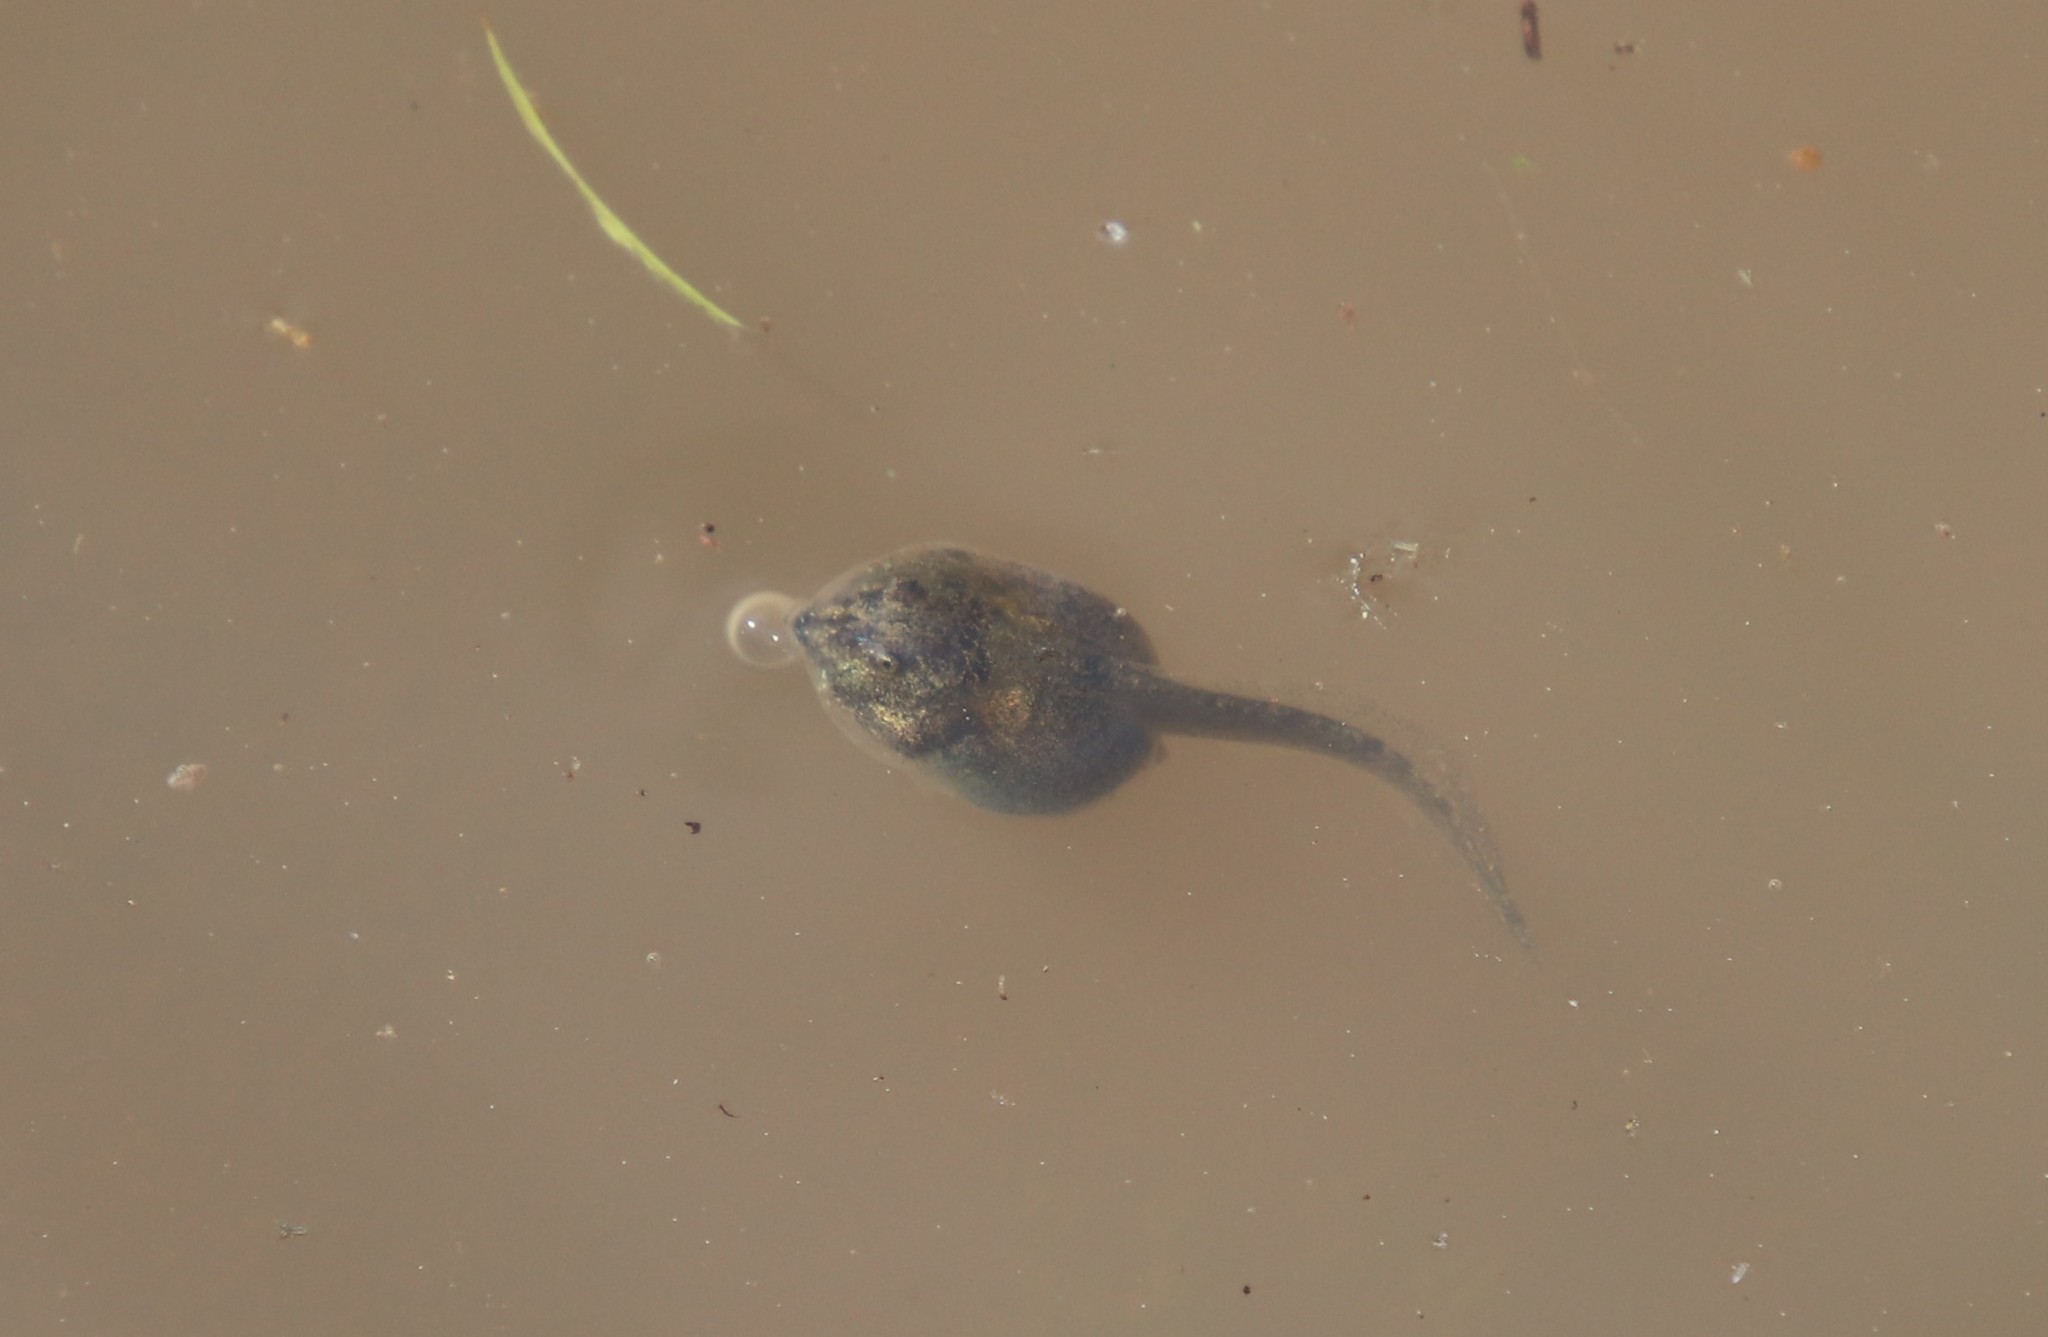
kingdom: Animalia
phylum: Chordata
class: Amphibia
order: Anura
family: Scaphiopodidae
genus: Spea
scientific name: Spea hammondii
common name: Western spadefoot toad
